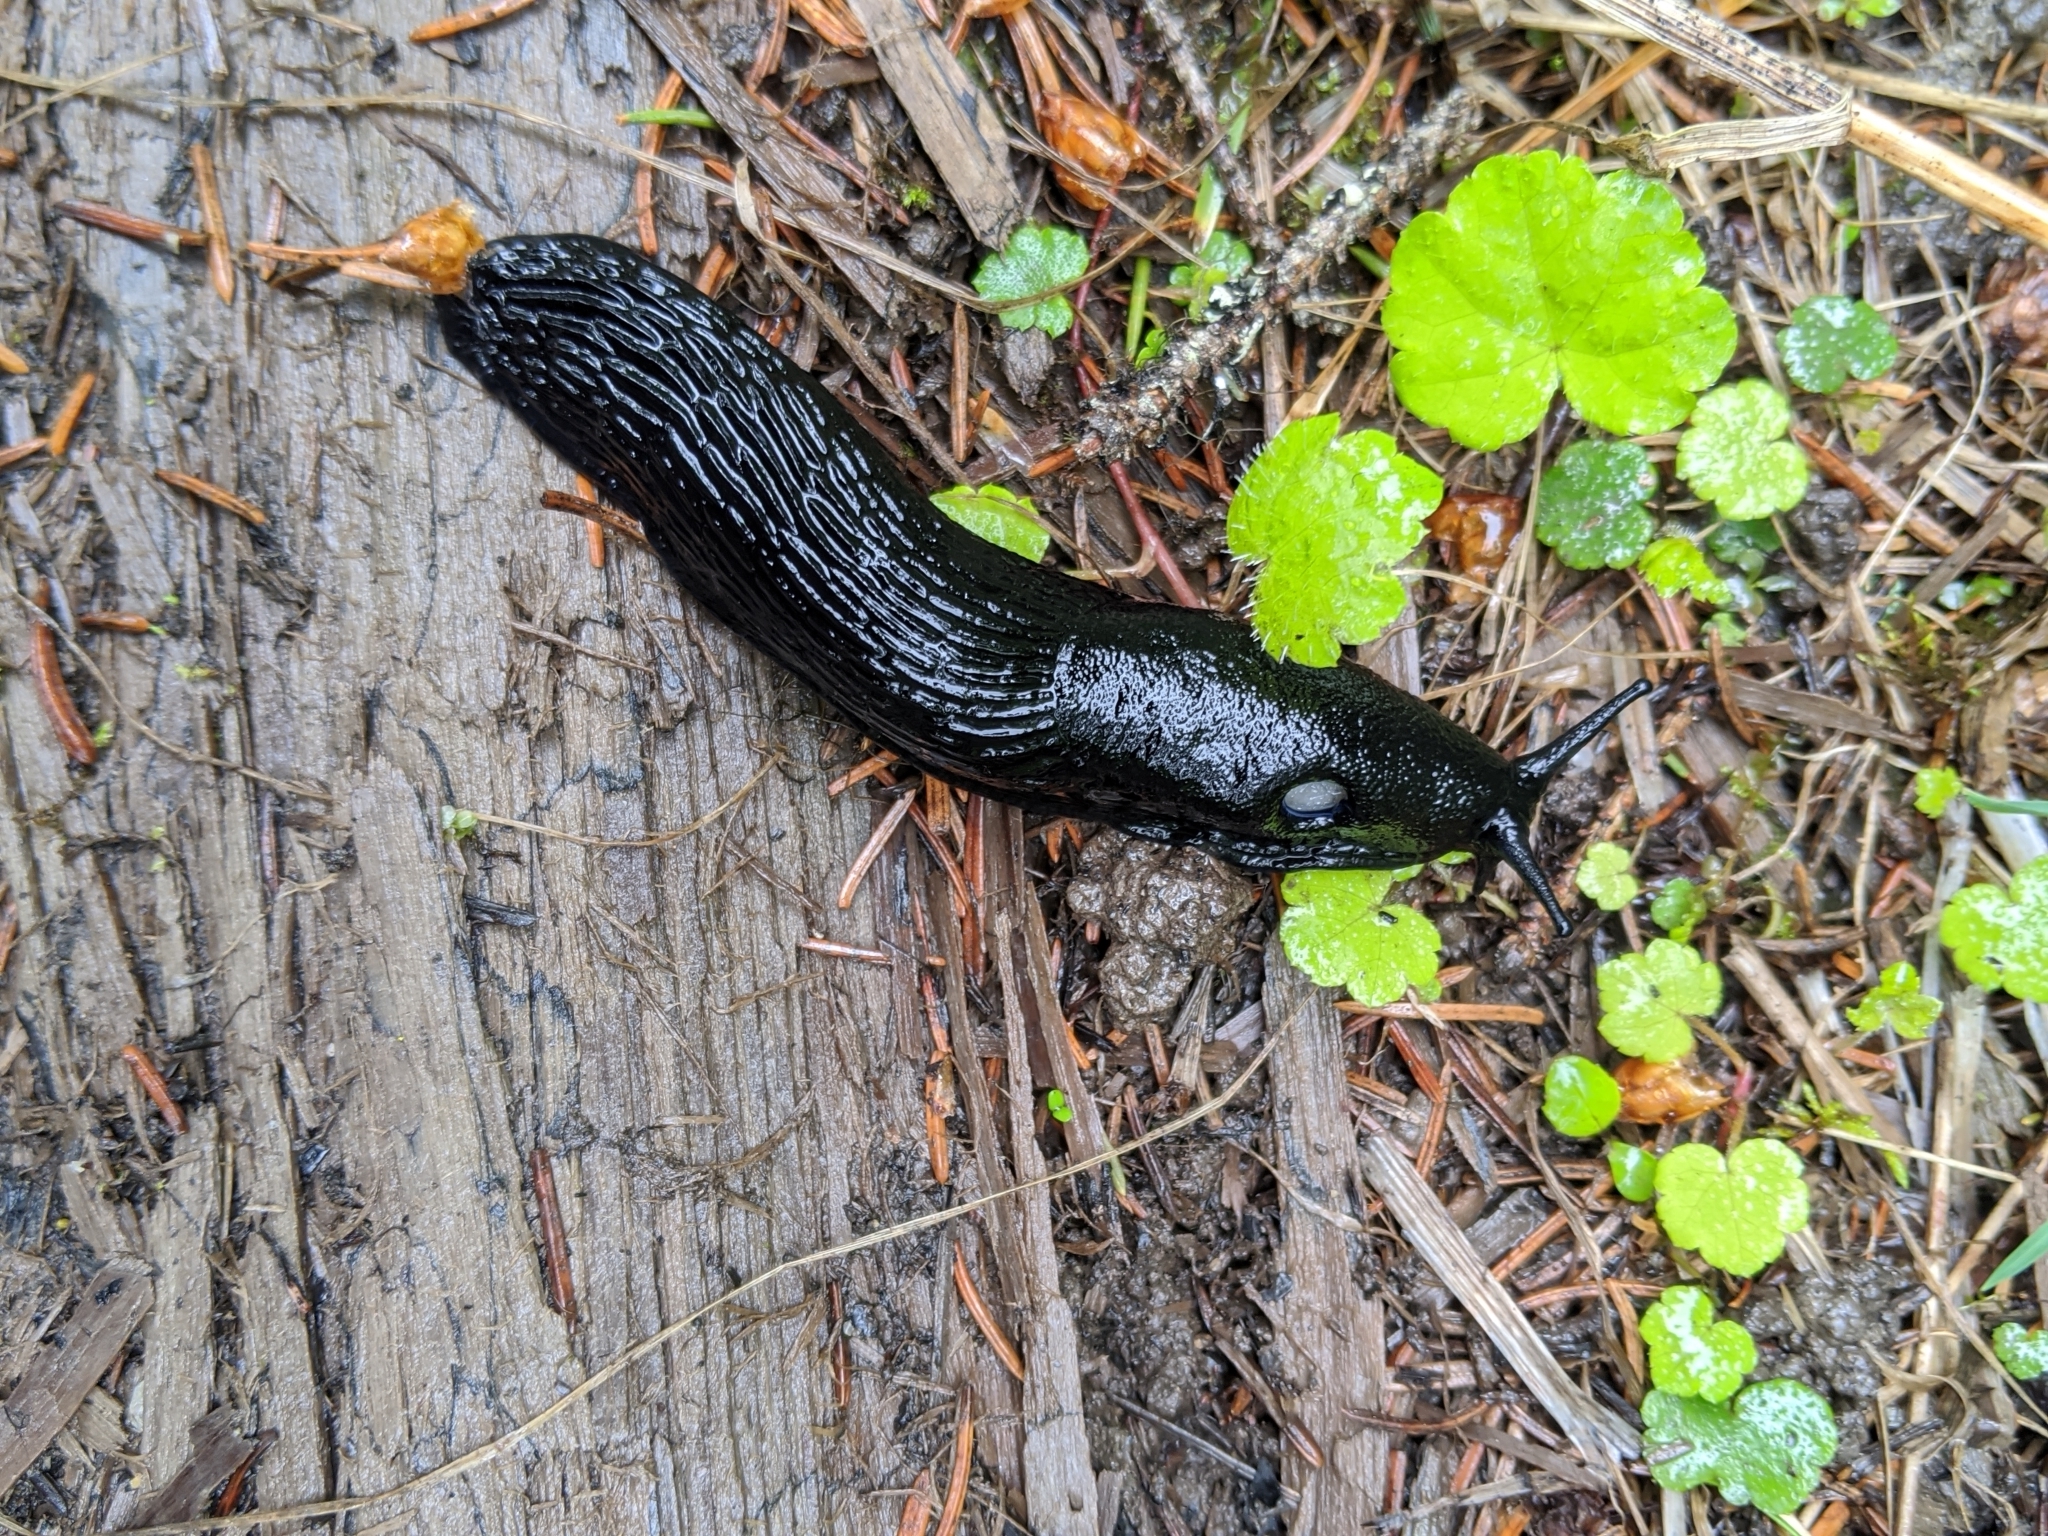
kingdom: Animalia
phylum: Mollusca
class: Gastropoda
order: Stylommatophora
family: Arionidae
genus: Arion
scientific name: Arion rufus
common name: Chocolate arion
